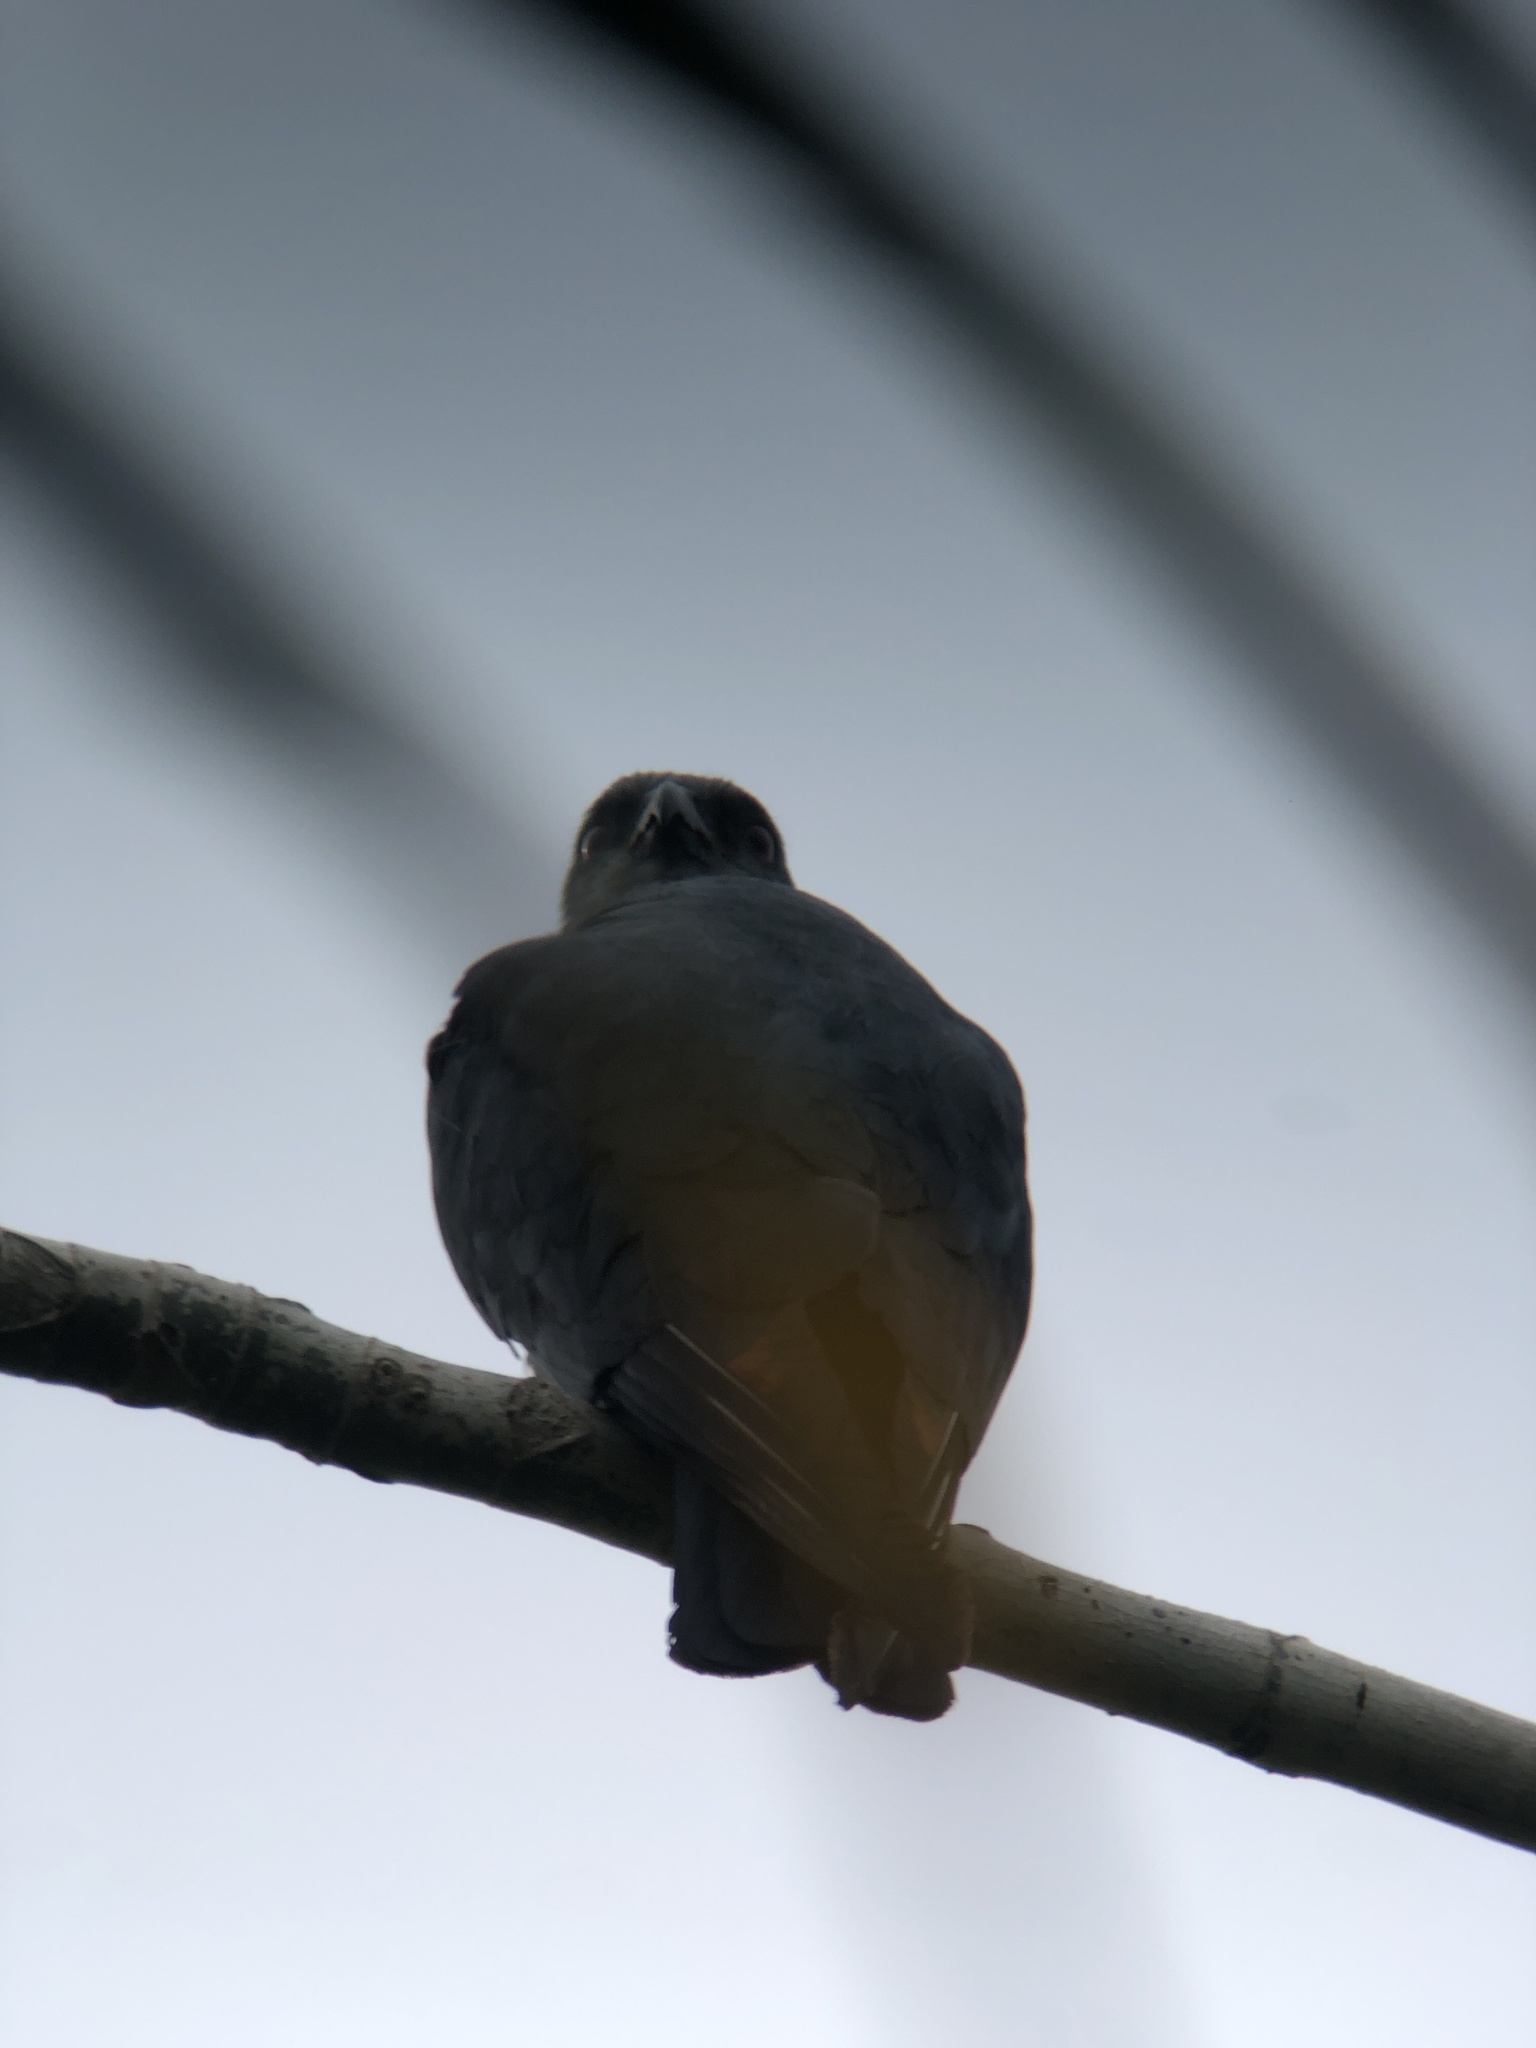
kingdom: Animalia
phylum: Chordata
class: Aves
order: Accipitriformes
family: Accipitridae
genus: Ictinia
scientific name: Ictinia plumbea
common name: Plumbeous kite
